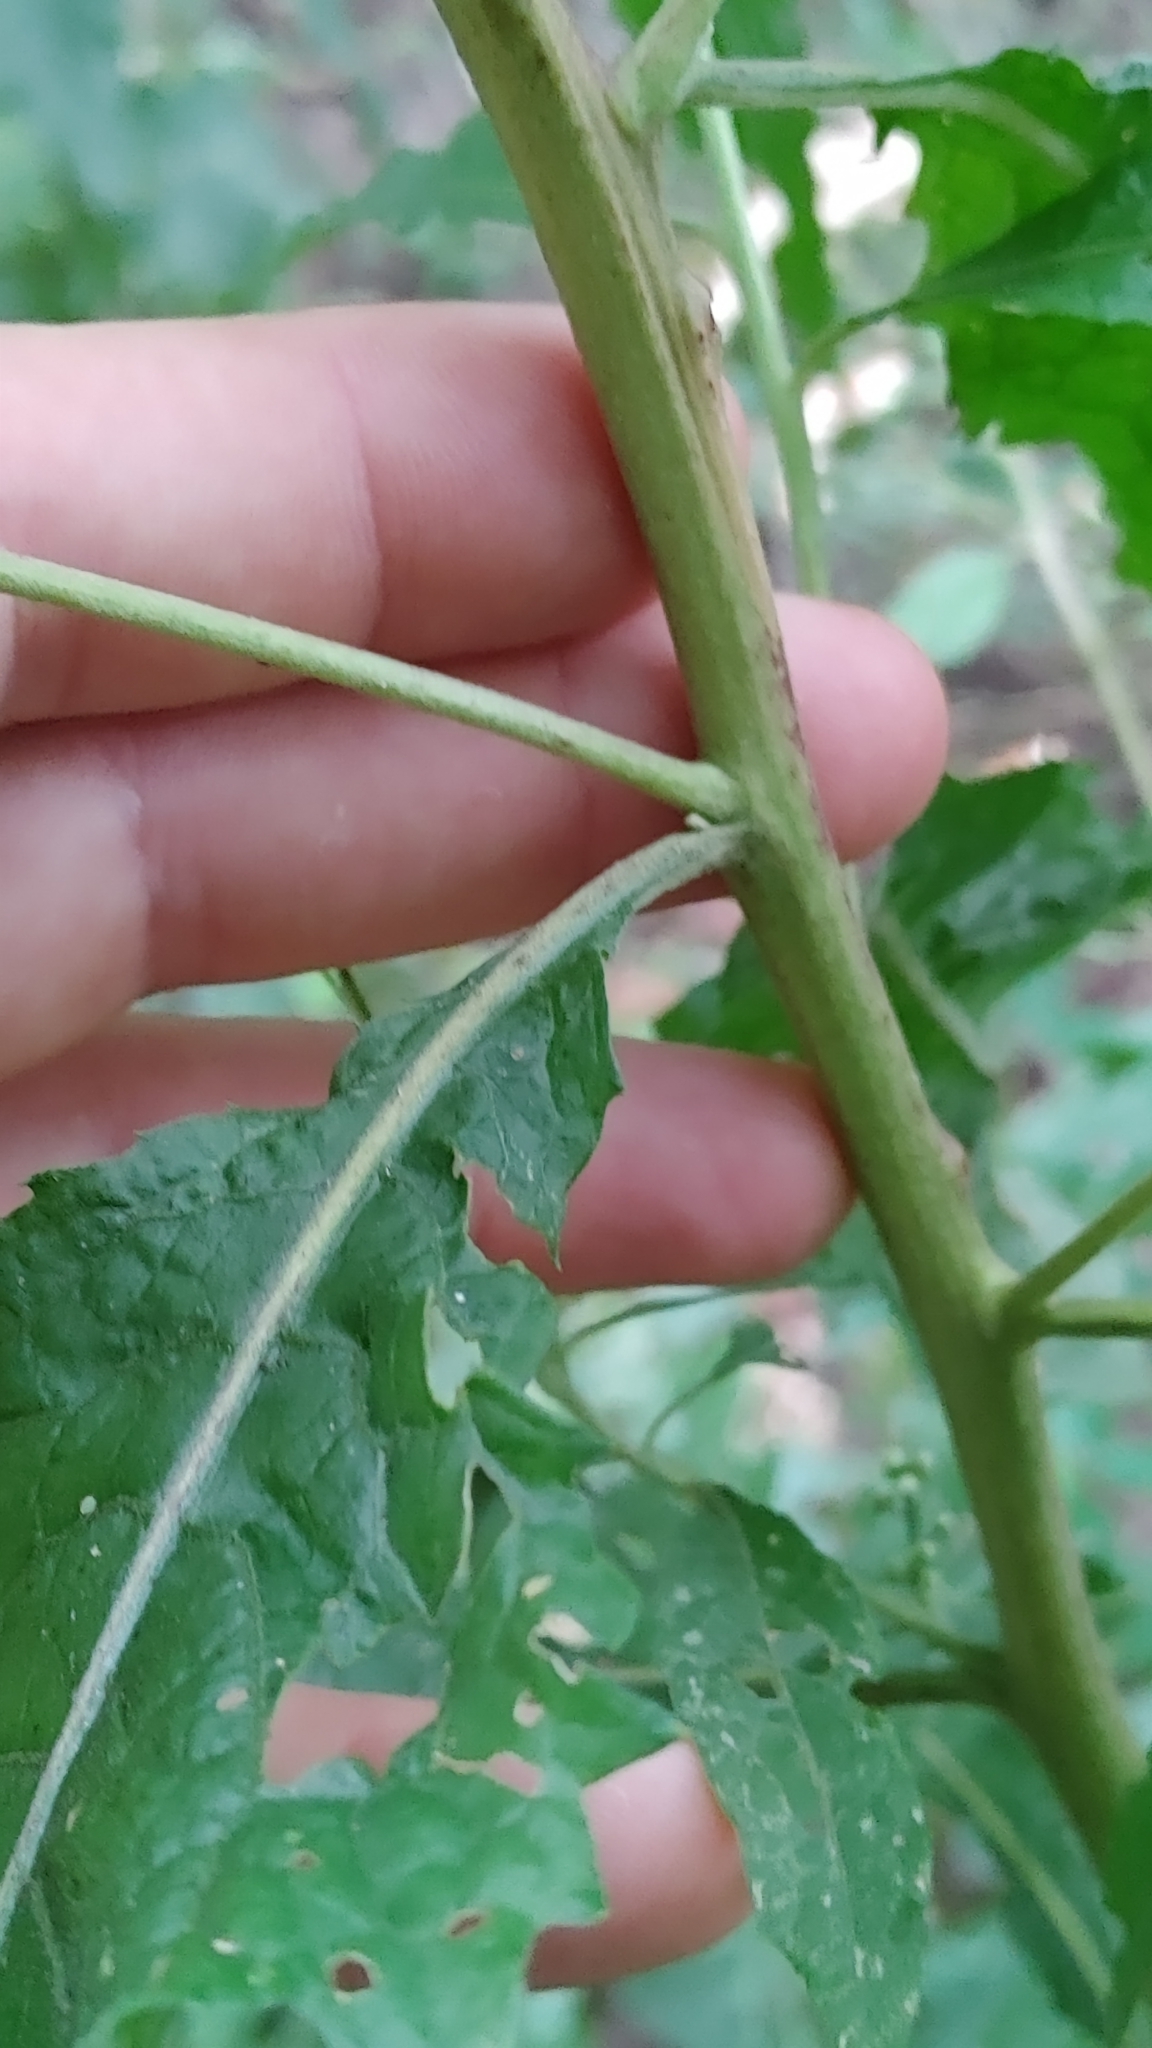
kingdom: Plantae
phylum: Tracheophyta
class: Magnoliopsida
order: Asterales
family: Asteraceae
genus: Pluchea
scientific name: Pluchea camphorata
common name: Camphor pluchea
